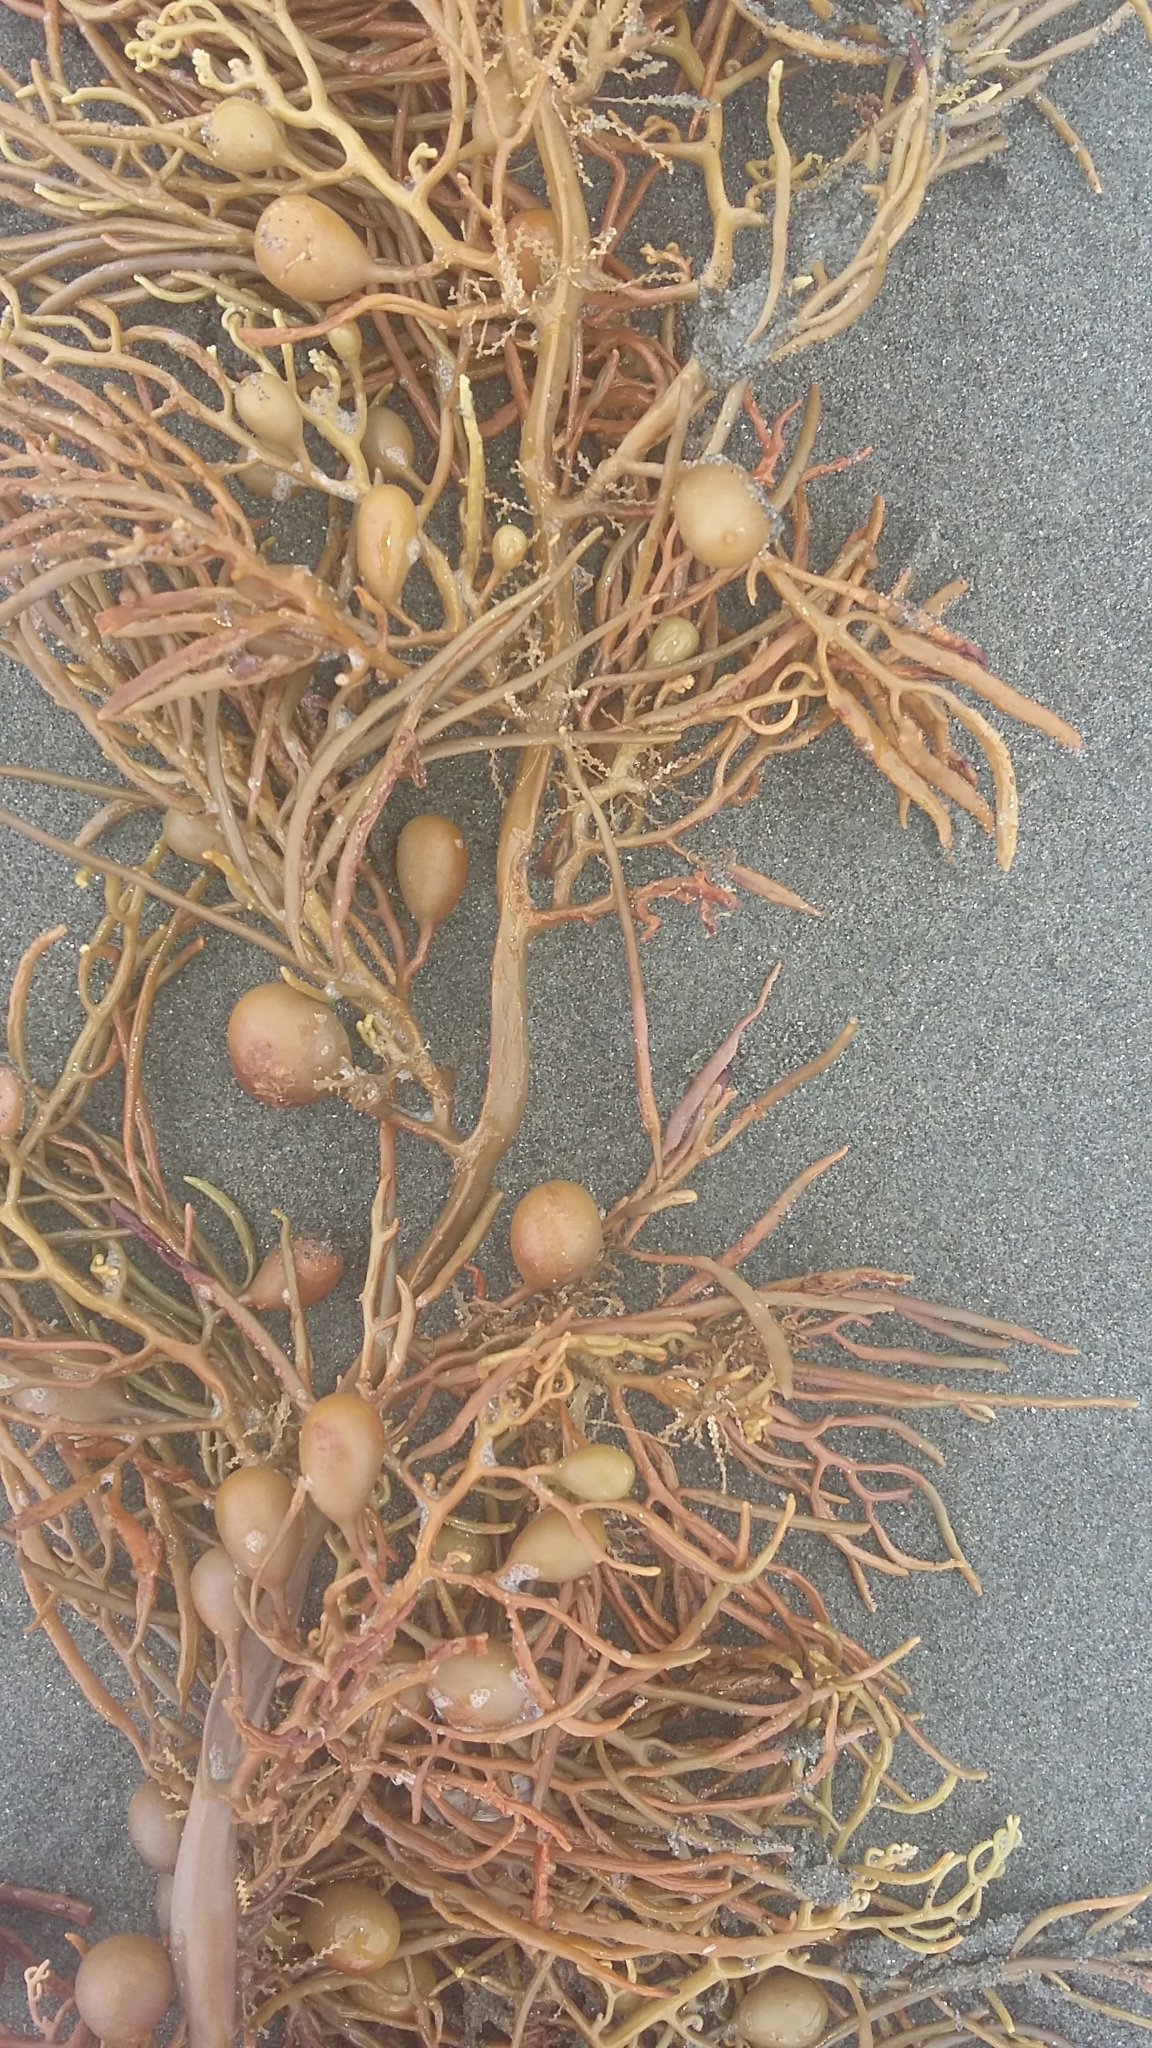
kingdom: Chromista
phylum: Ochrophyta
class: Phaeophyceae
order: Fucales
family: Sargassaceae
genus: Cystophora
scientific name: Cystophora retroflexa
